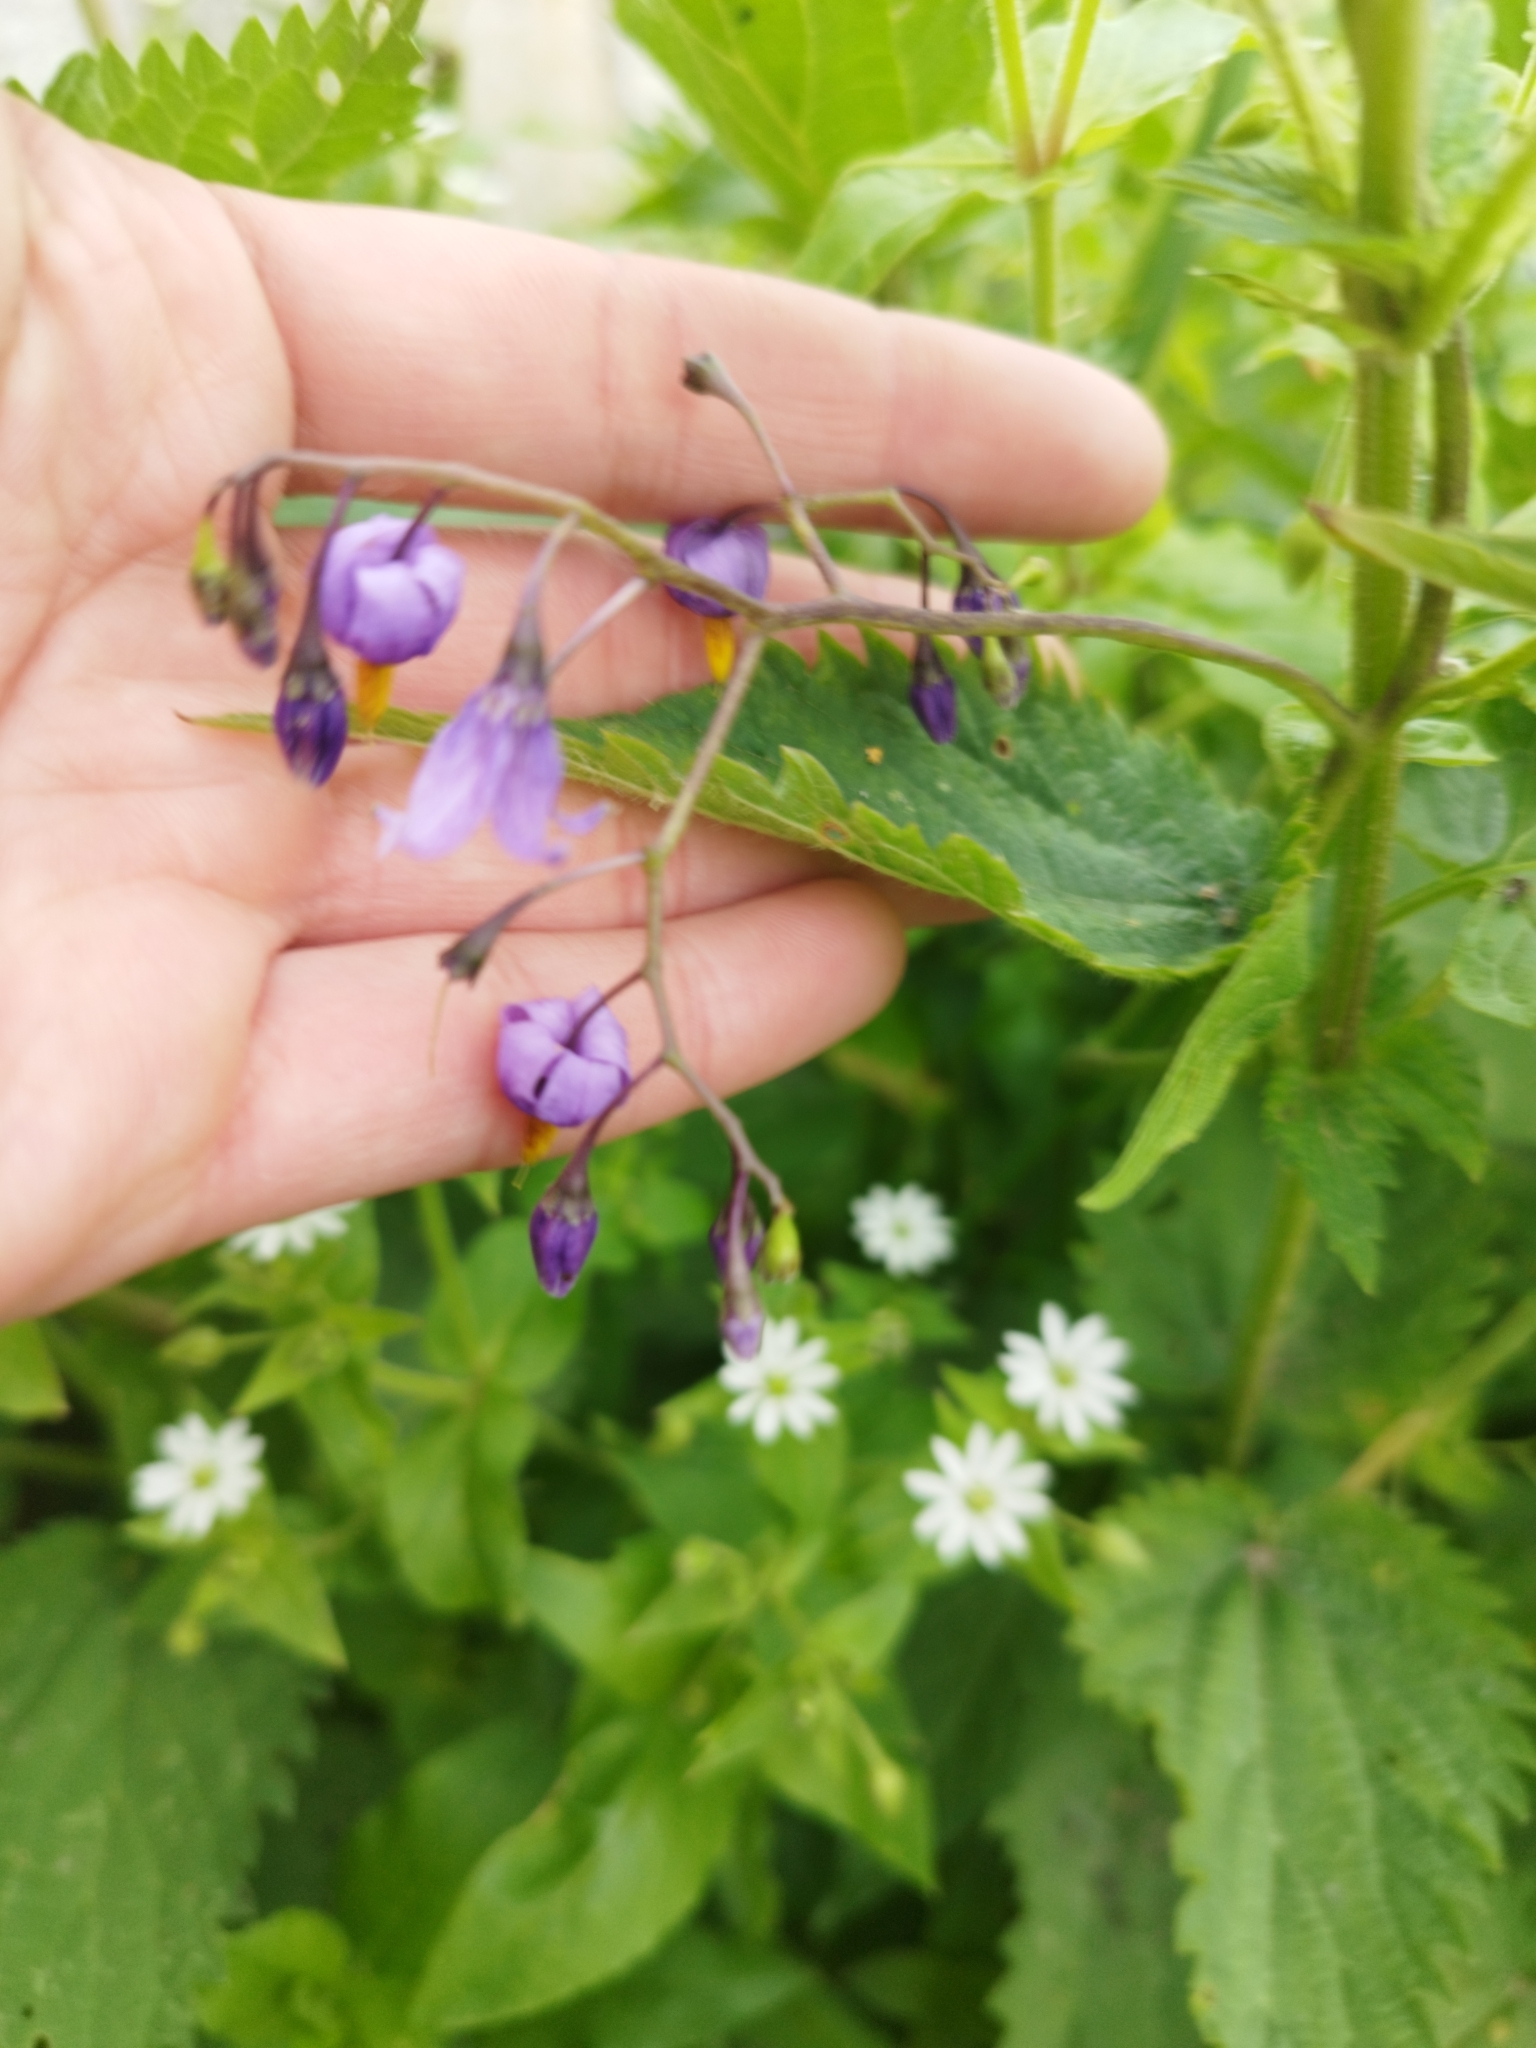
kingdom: Plantae
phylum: Tracheophyta
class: Magnoliopsida
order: Solanales
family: Solanaceae
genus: Solanum
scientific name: Solanum dulcamara
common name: Climbing nightshade
